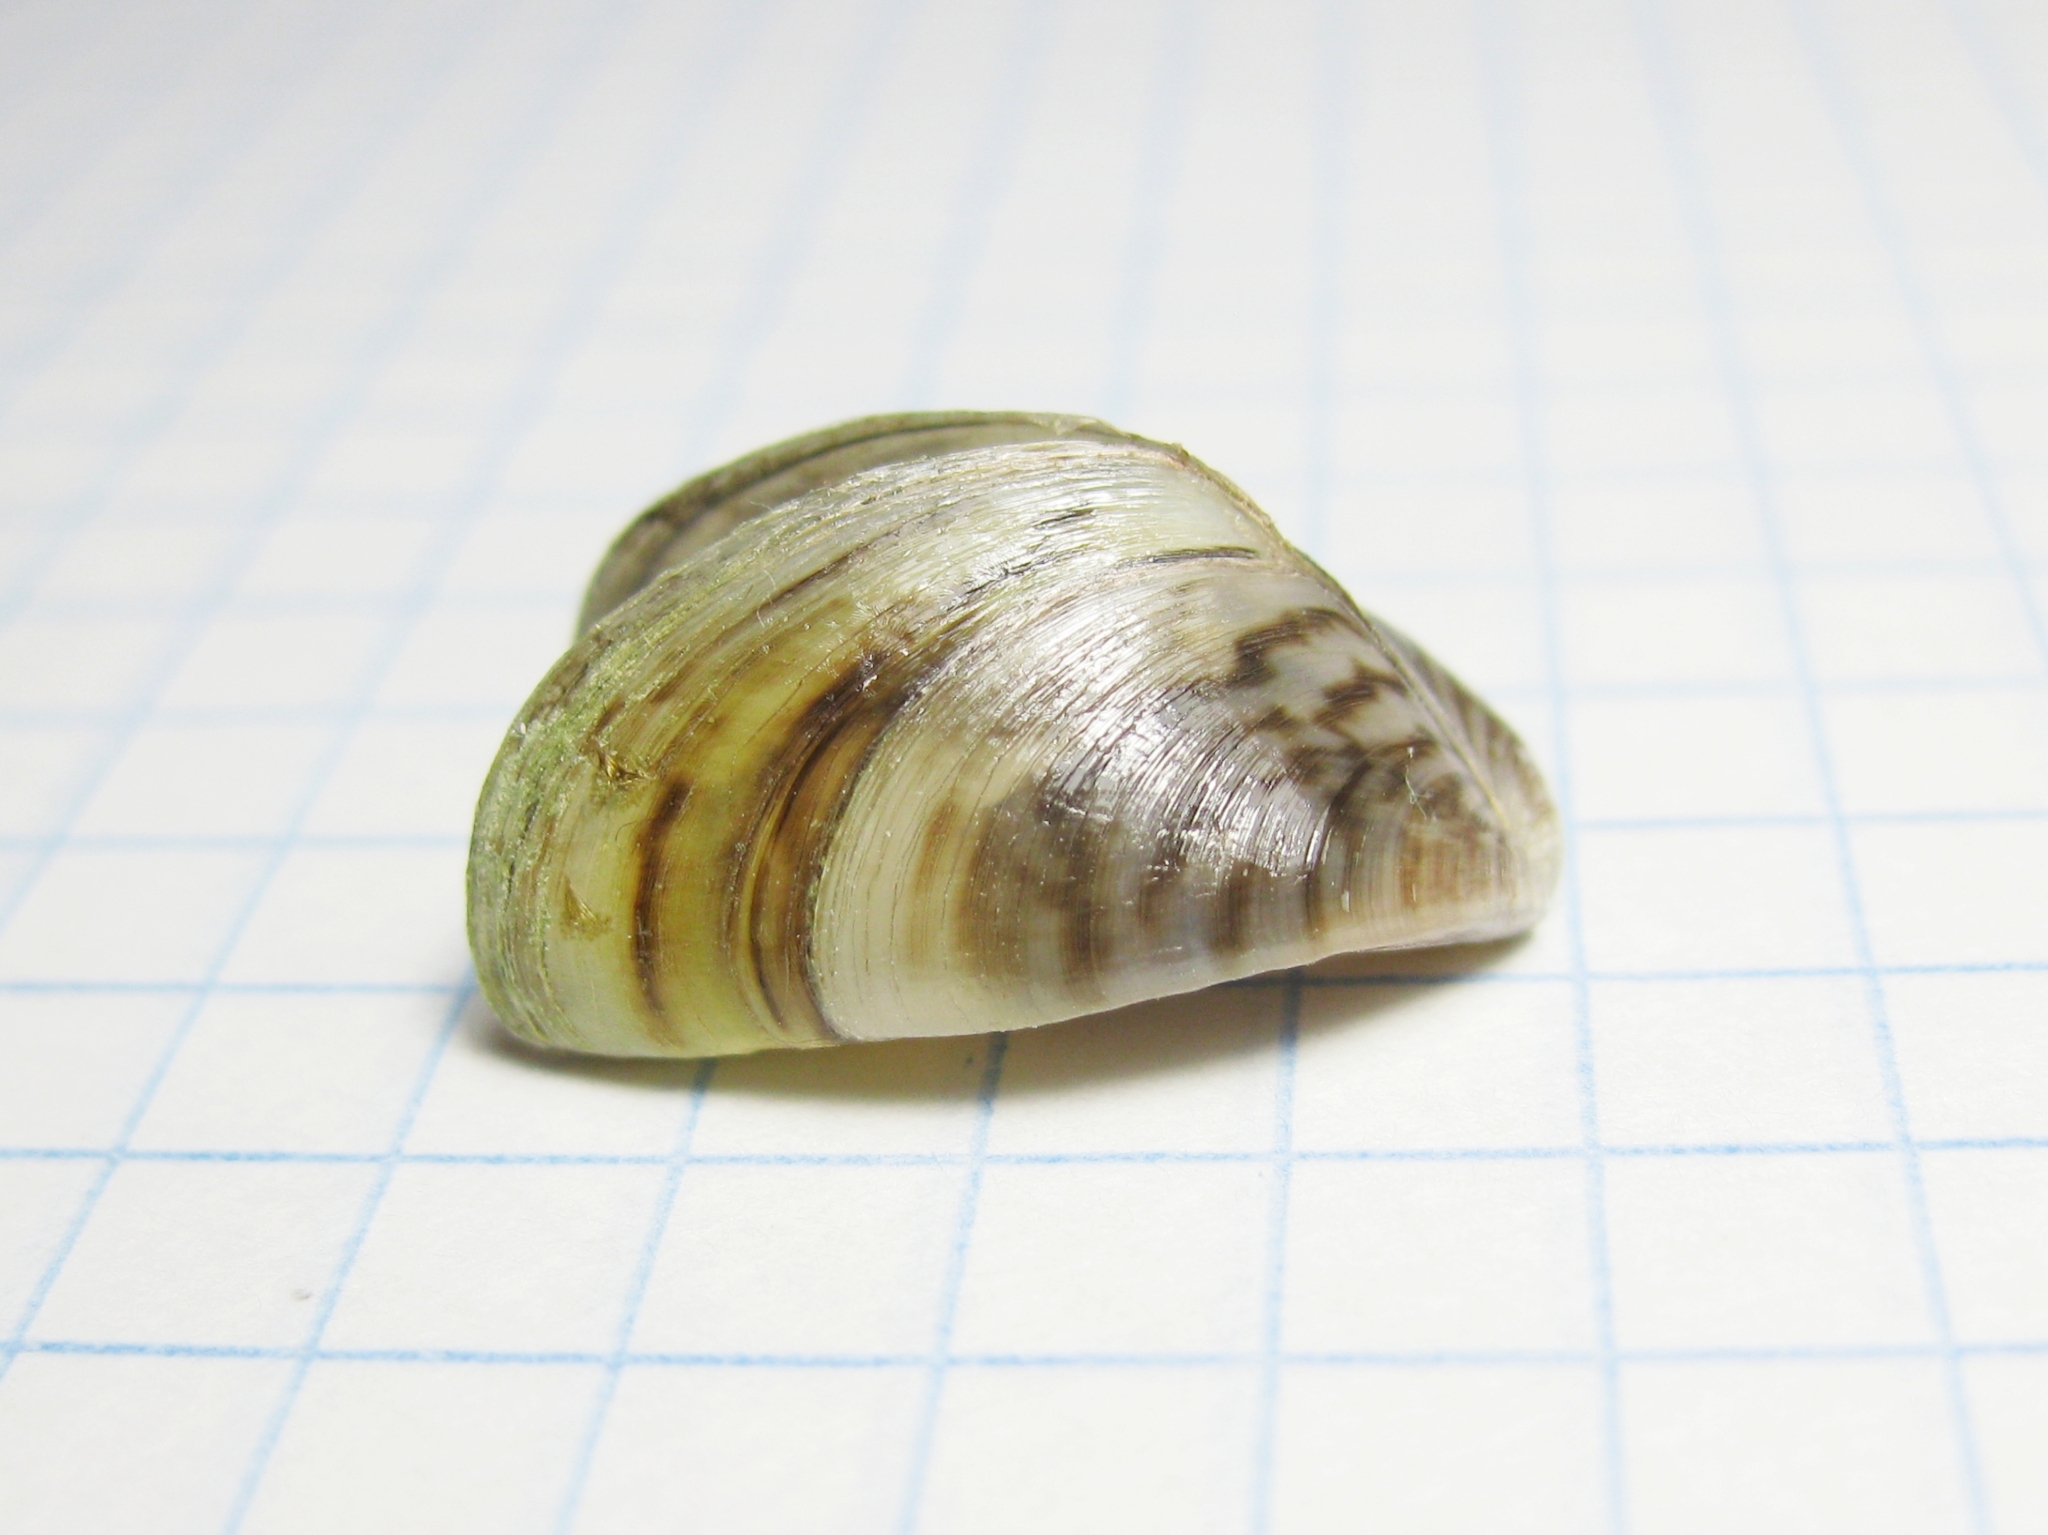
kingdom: Animalia
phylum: Mollusca
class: Bivalvia
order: Myida
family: Dreissenidae
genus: Dreissena
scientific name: Dreissena polymorpha
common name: Zebra mussel
